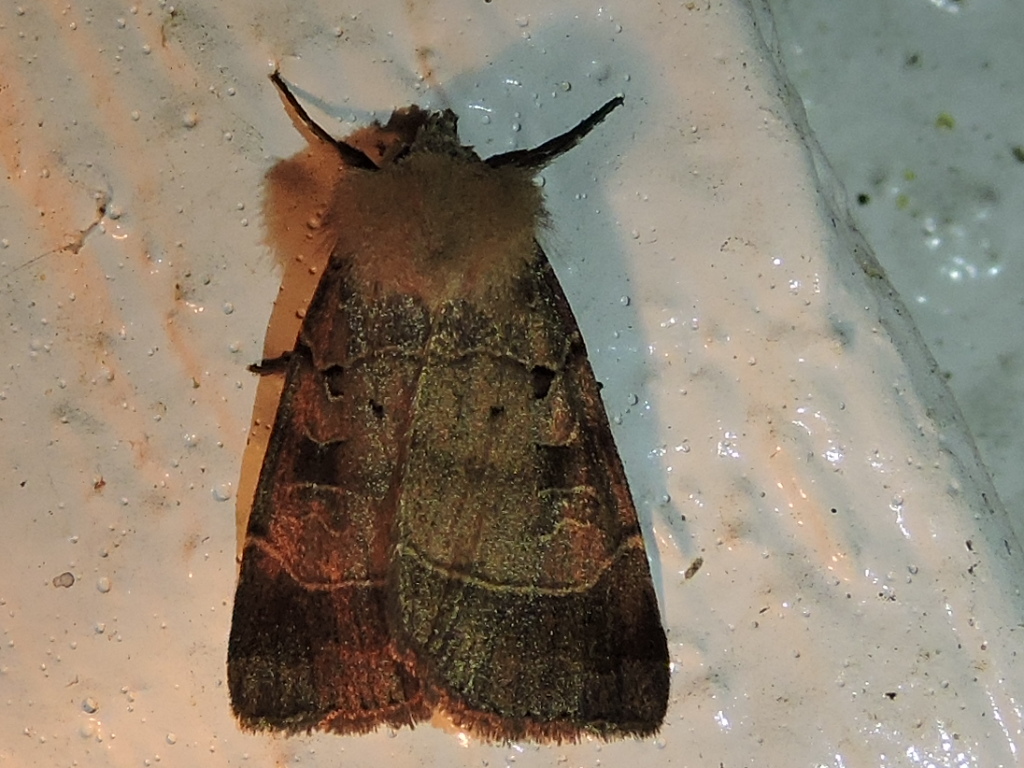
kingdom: Animalia
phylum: Arthropoda
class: Insecta
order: Lepidoptera
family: Noctuidae
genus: Agnorisma
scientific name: Agnorisma badinodis
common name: Pale-banded dart
